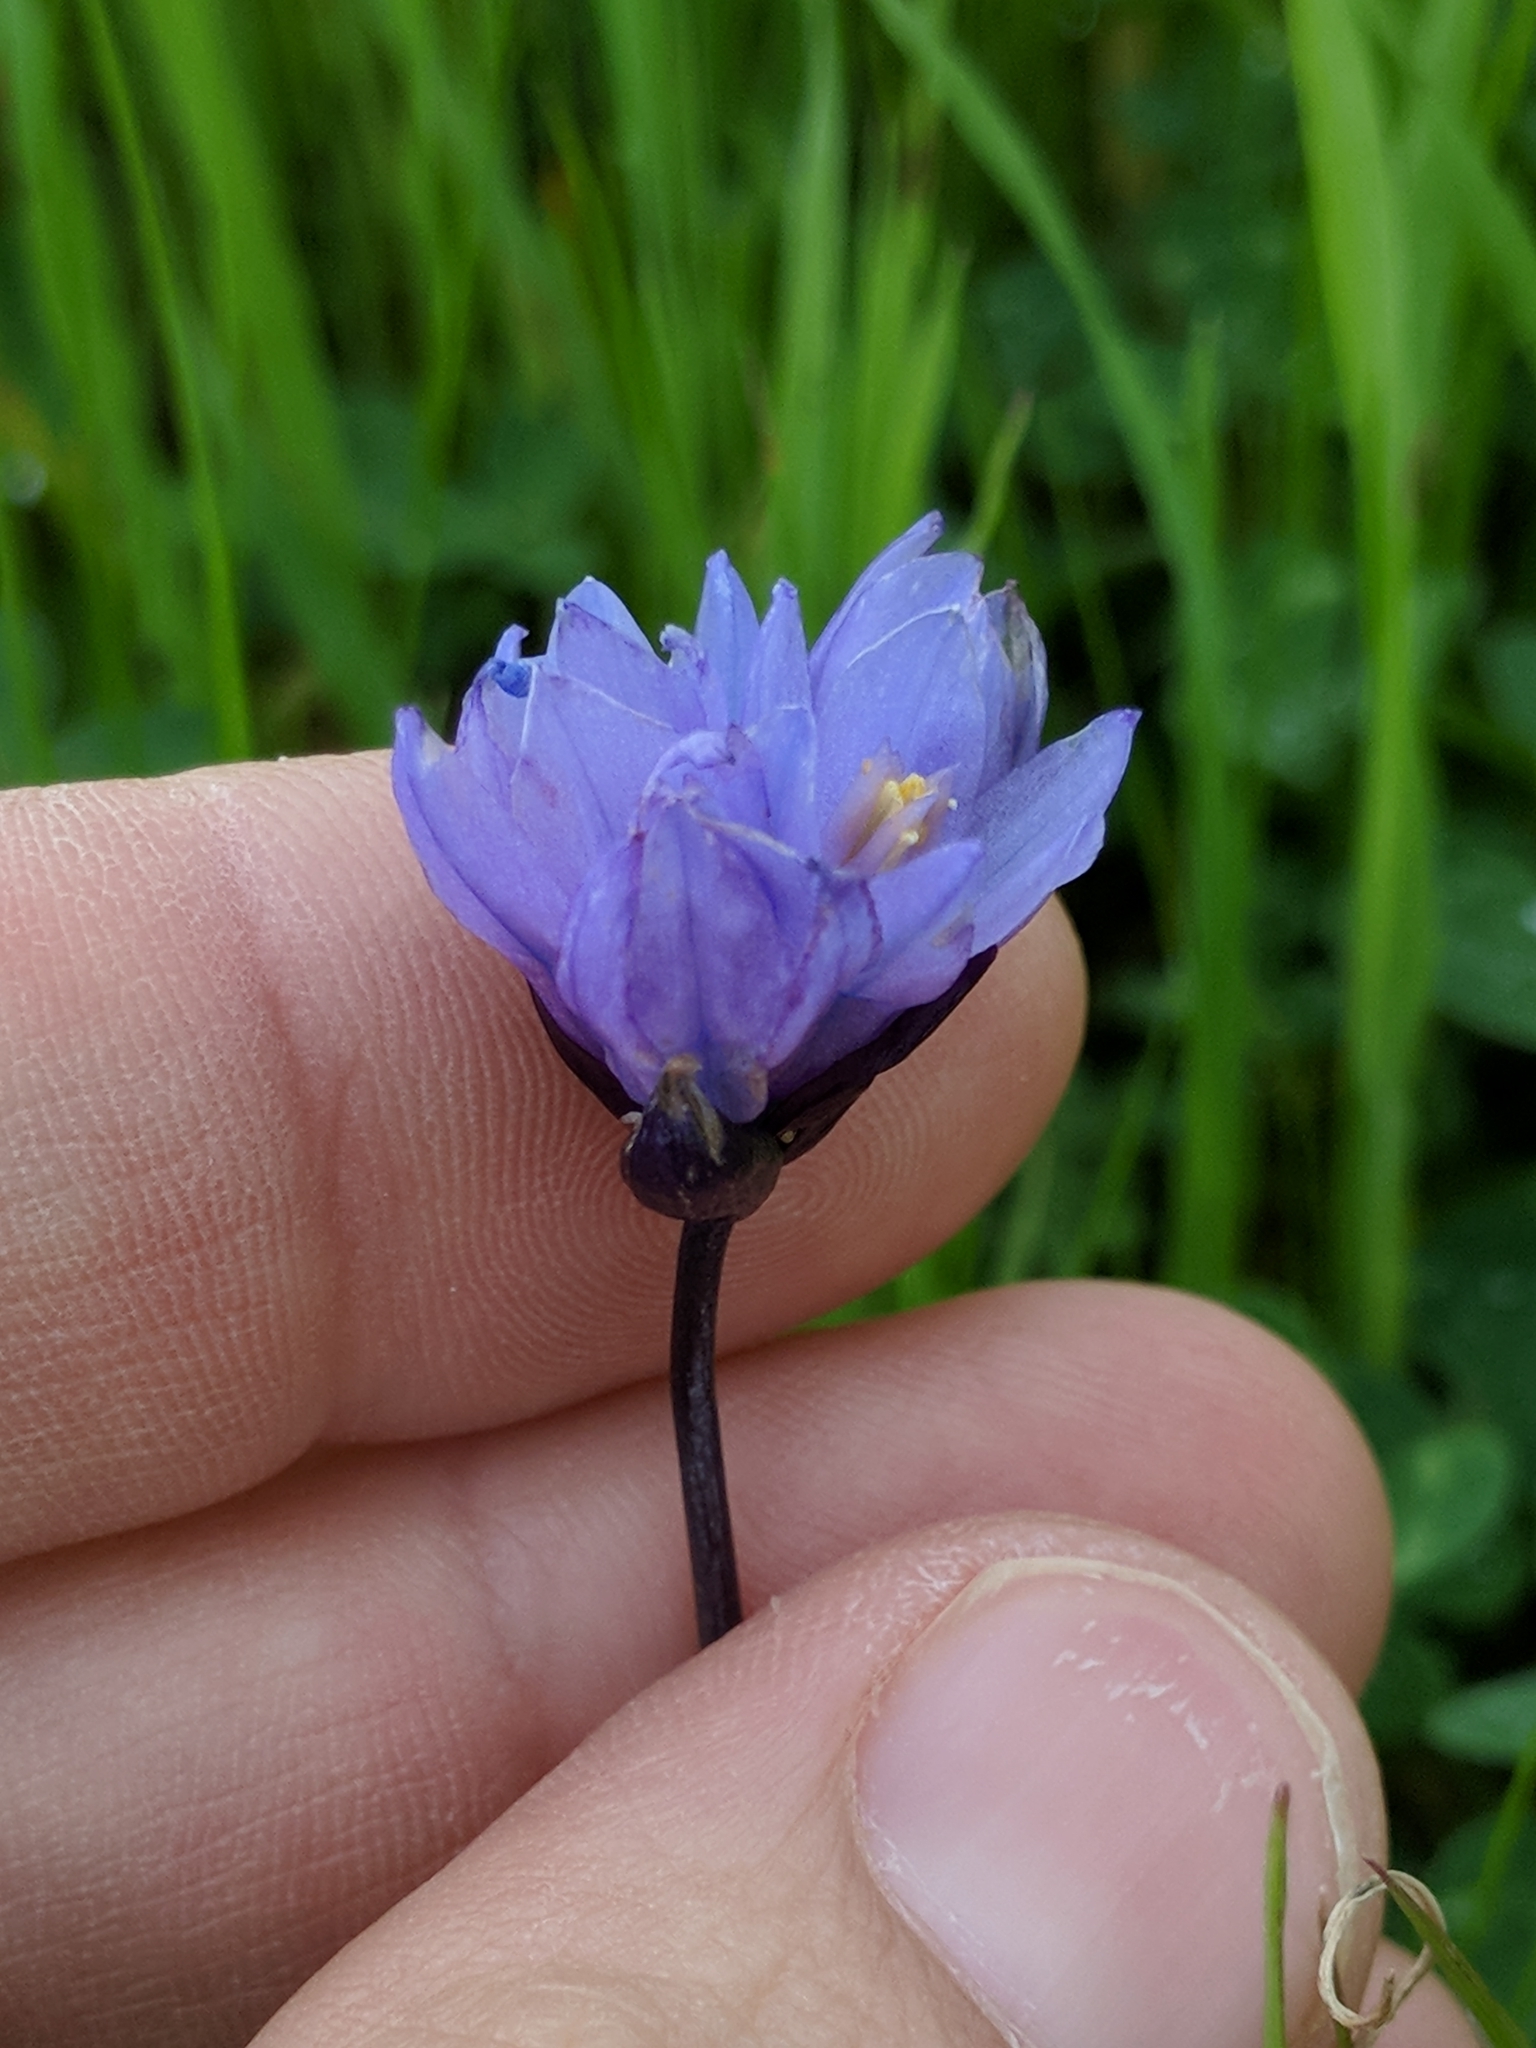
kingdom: Plantae
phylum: Tracheophyta
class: Liliopsida
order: Asparagales
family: Asparagaceae
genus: Dipterostemon
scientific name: Dipterostemon capitatus
